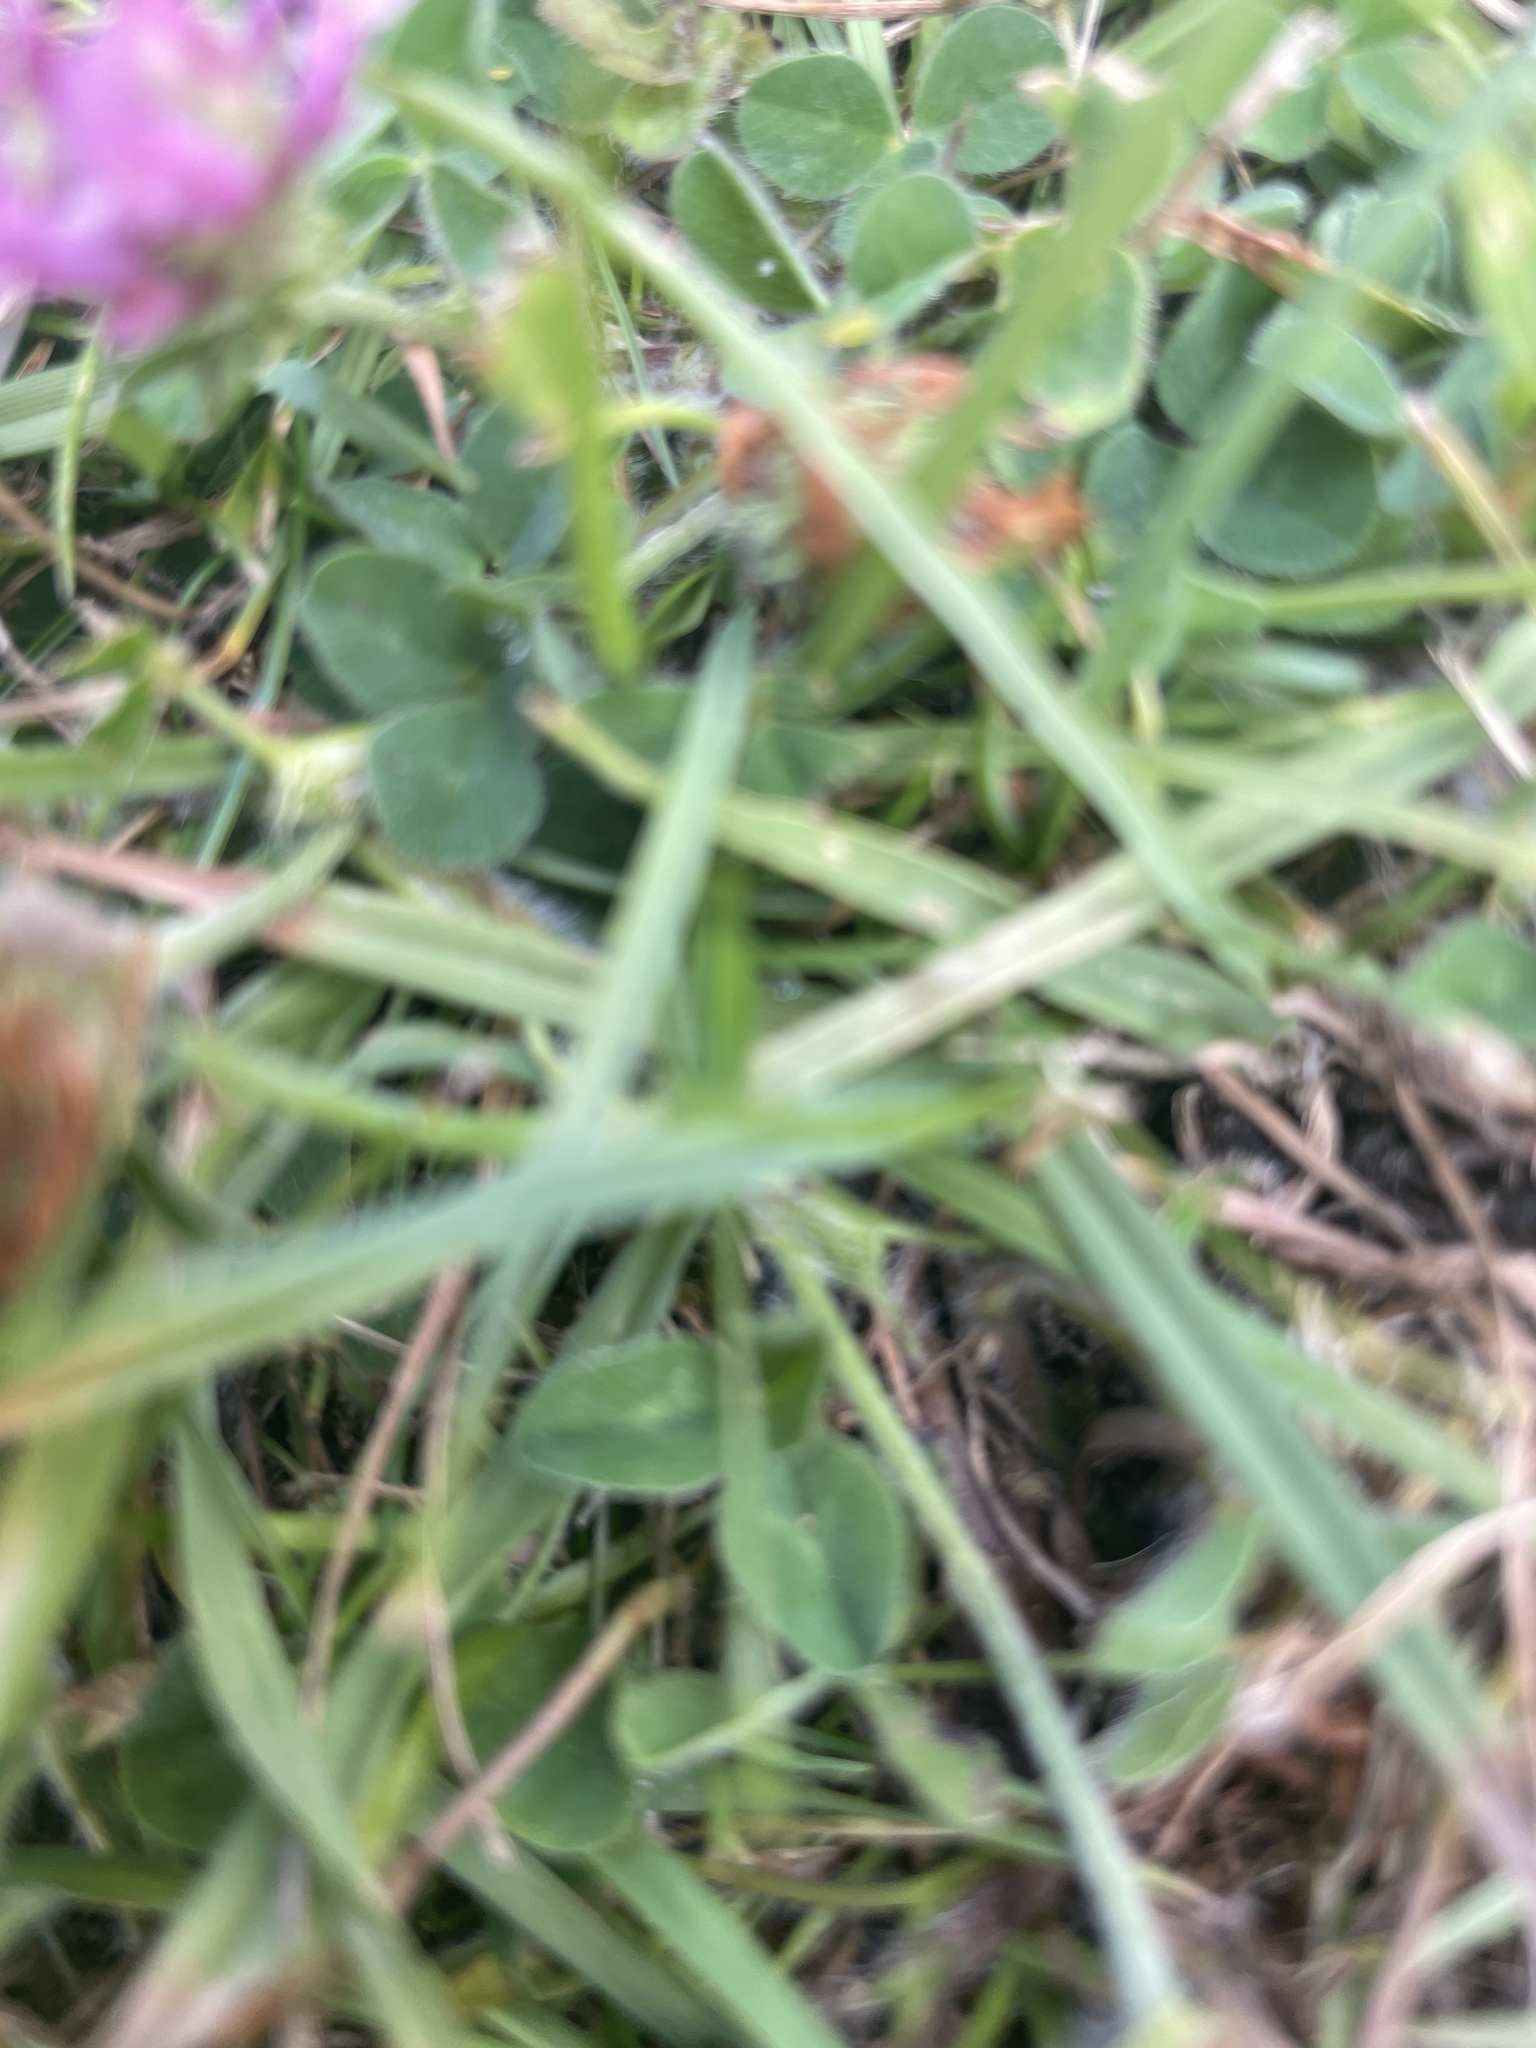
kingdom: Plantae
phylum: Tracheophyta
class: Magnoliopsida
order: Fabales
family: Fabaceae
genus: Trifolium
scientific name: Trifolium pratense
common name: Red clover
